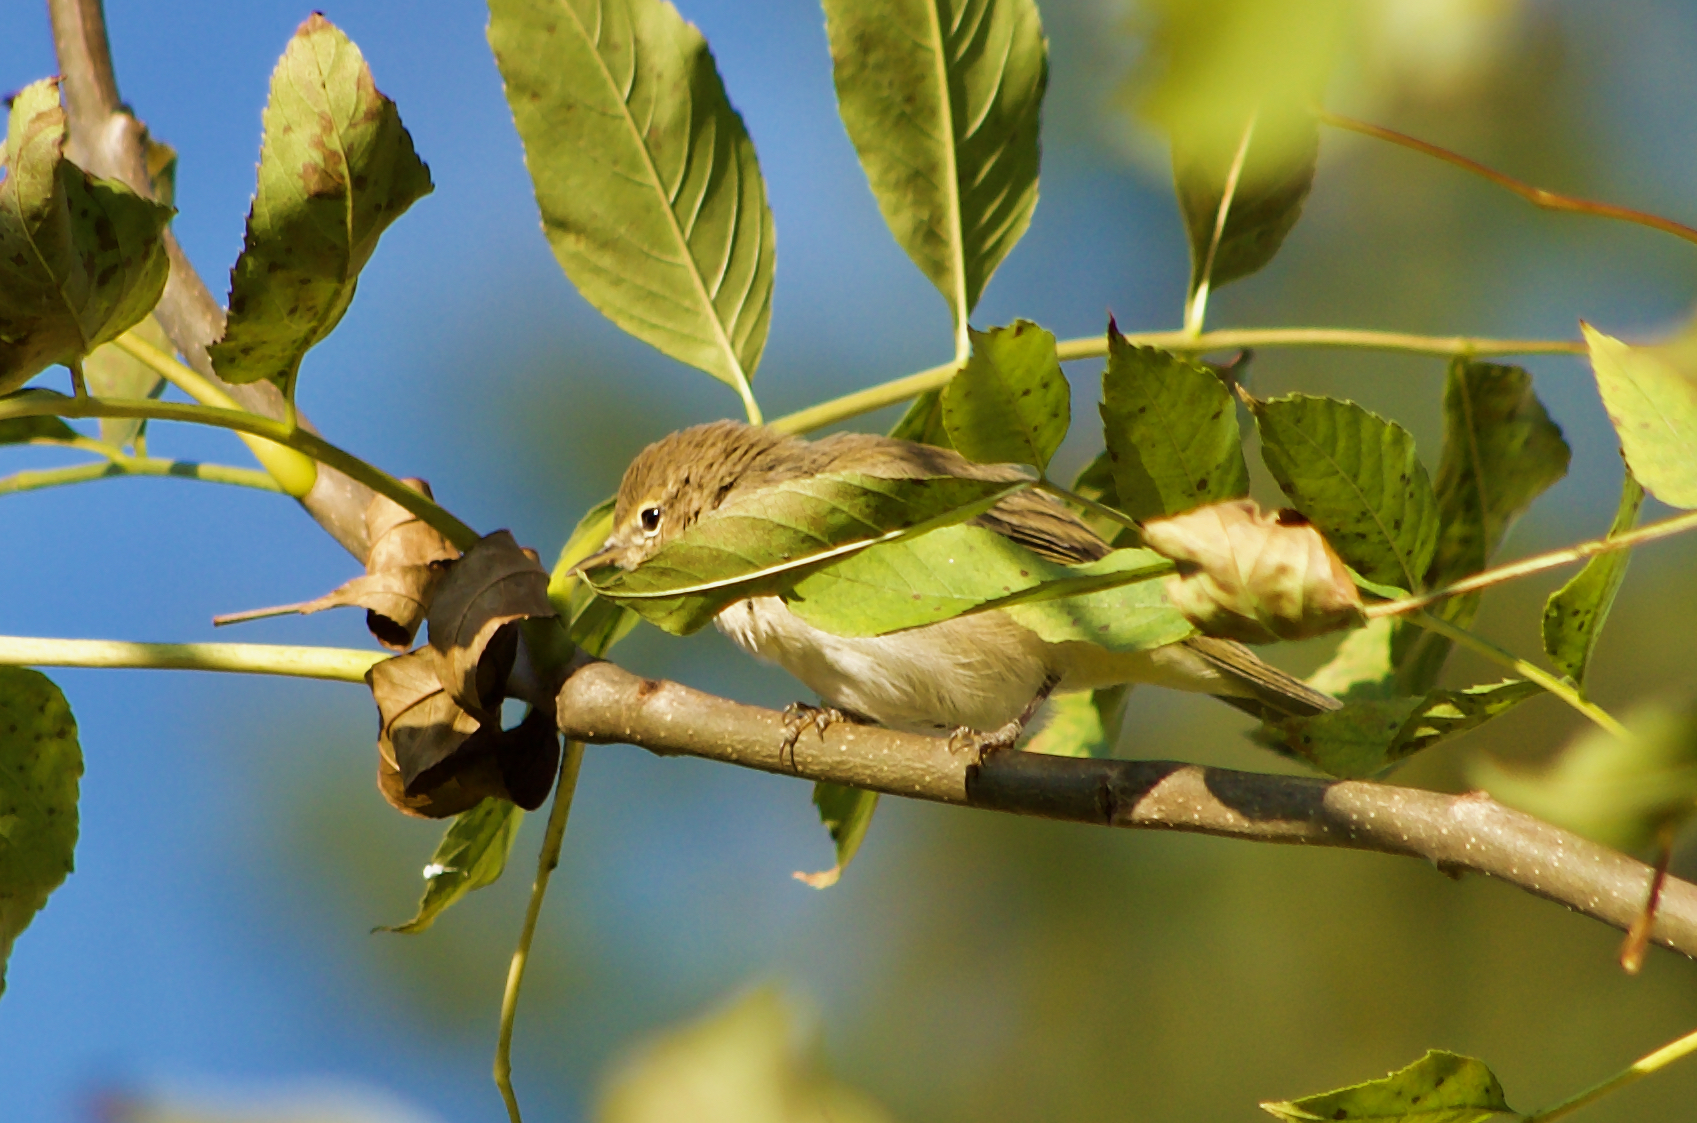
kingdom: Animalia
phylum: Chordata
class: Aves
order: Passeriformes
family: Phylloscopidae
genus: Phylloscopus
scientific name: Phylloscopus collybita
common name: Common chiffchaff
